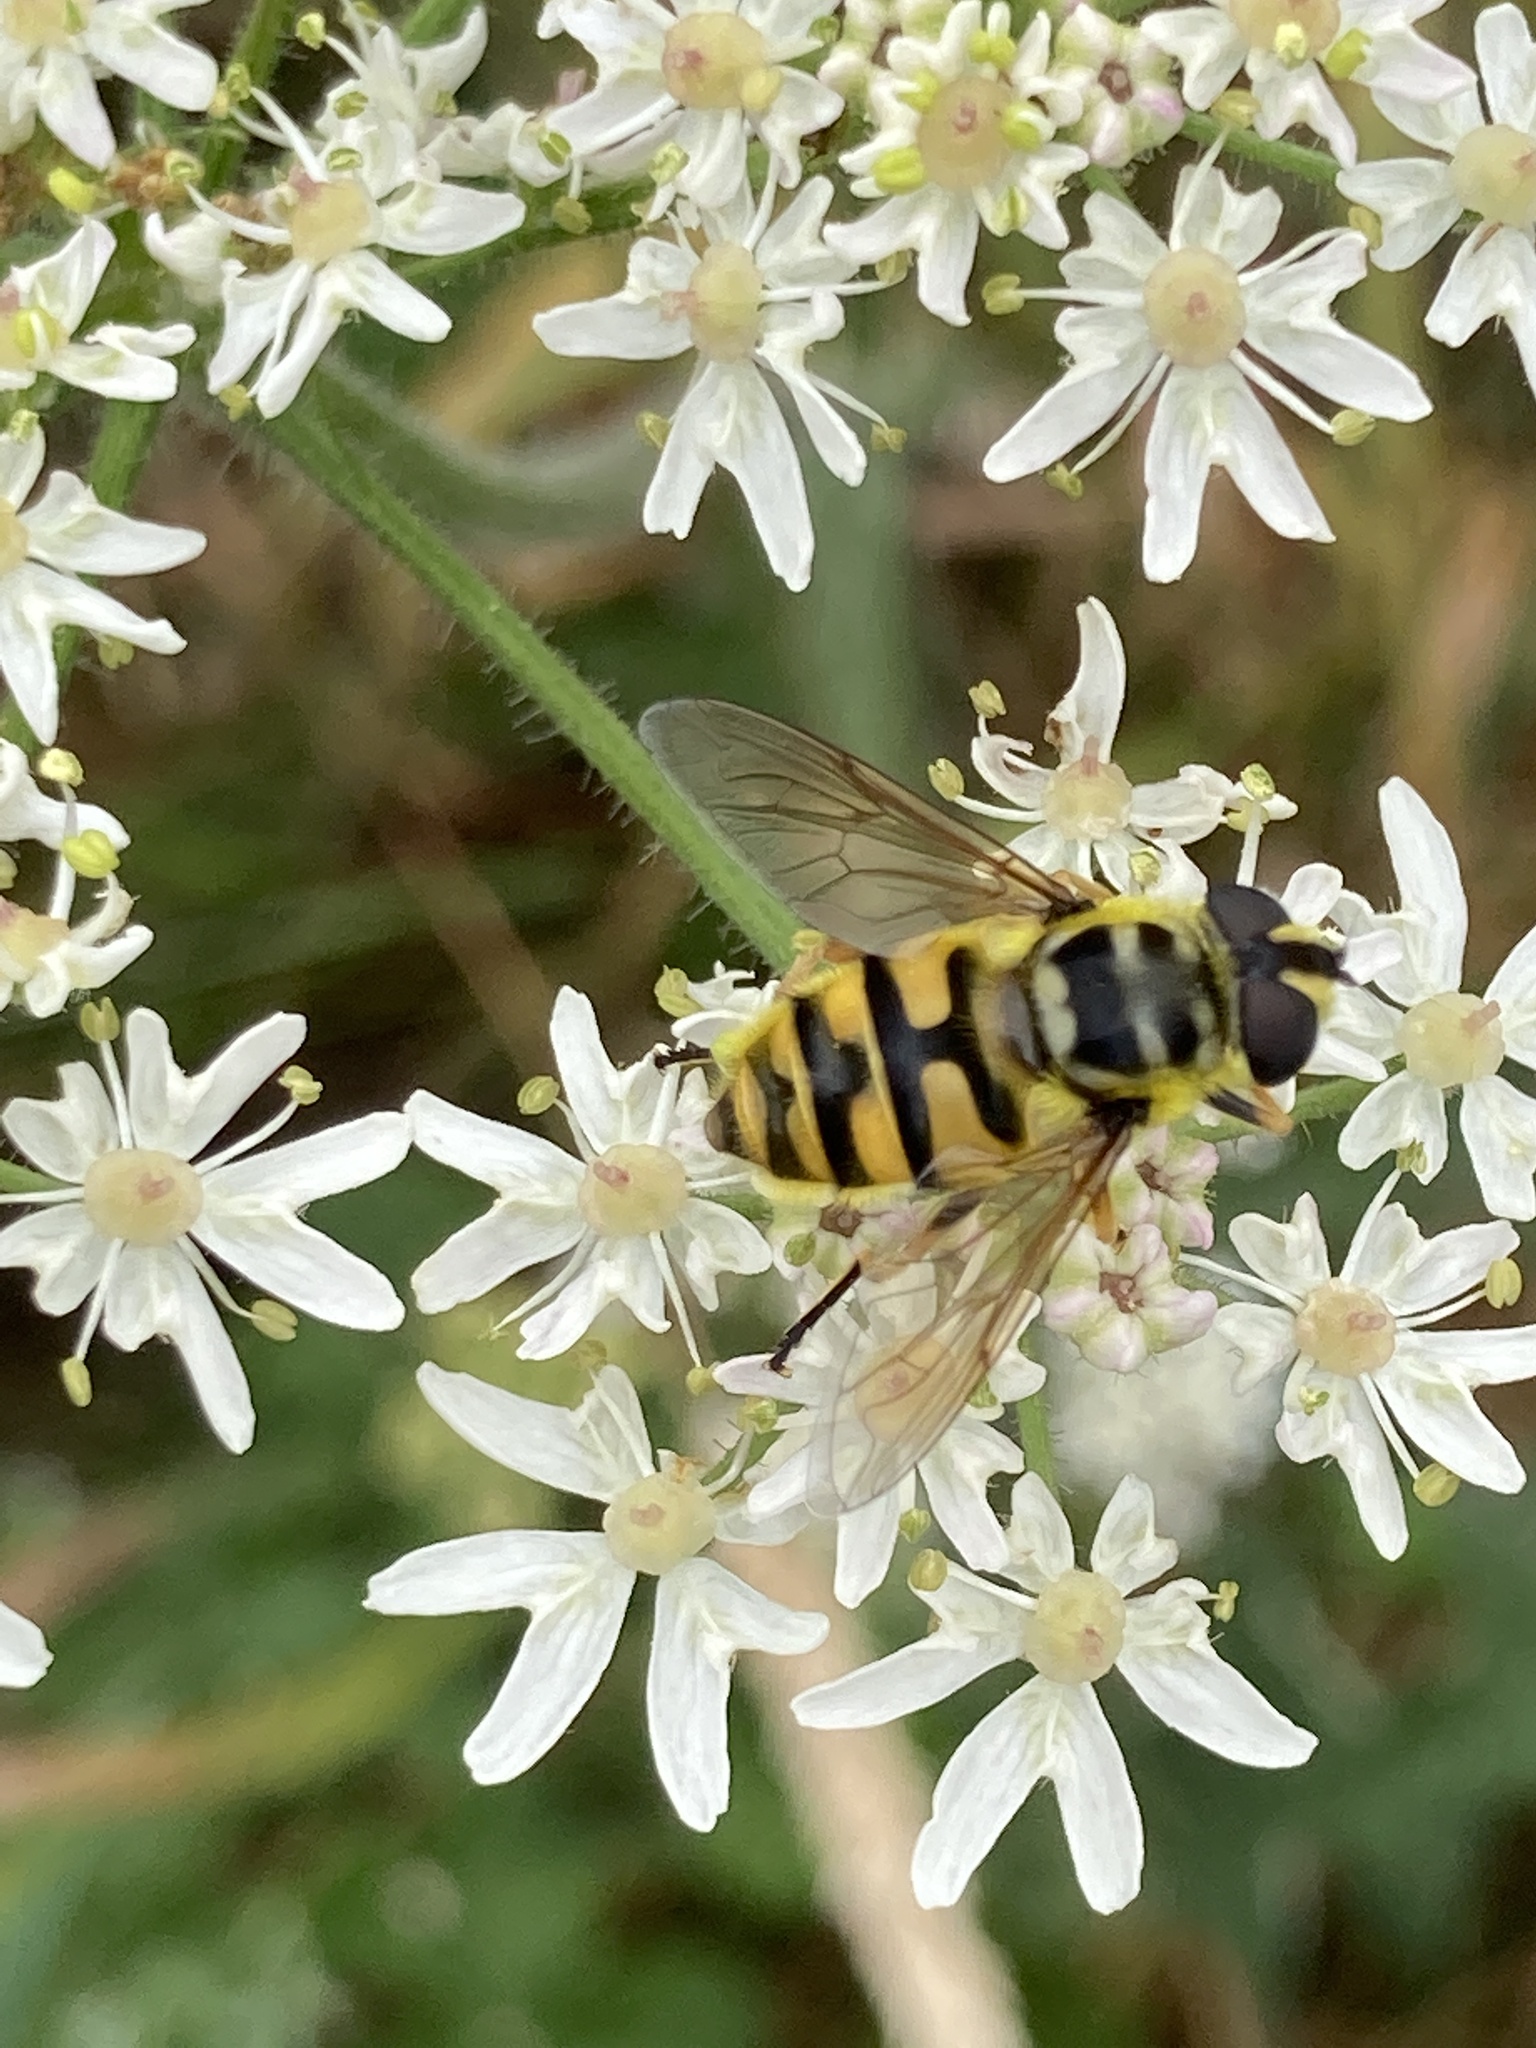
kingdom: Animalia
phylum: Arthropoda
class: Insecta
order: Diptera
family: Syrphidae
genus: Myathropa
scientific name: Myathropa florea
